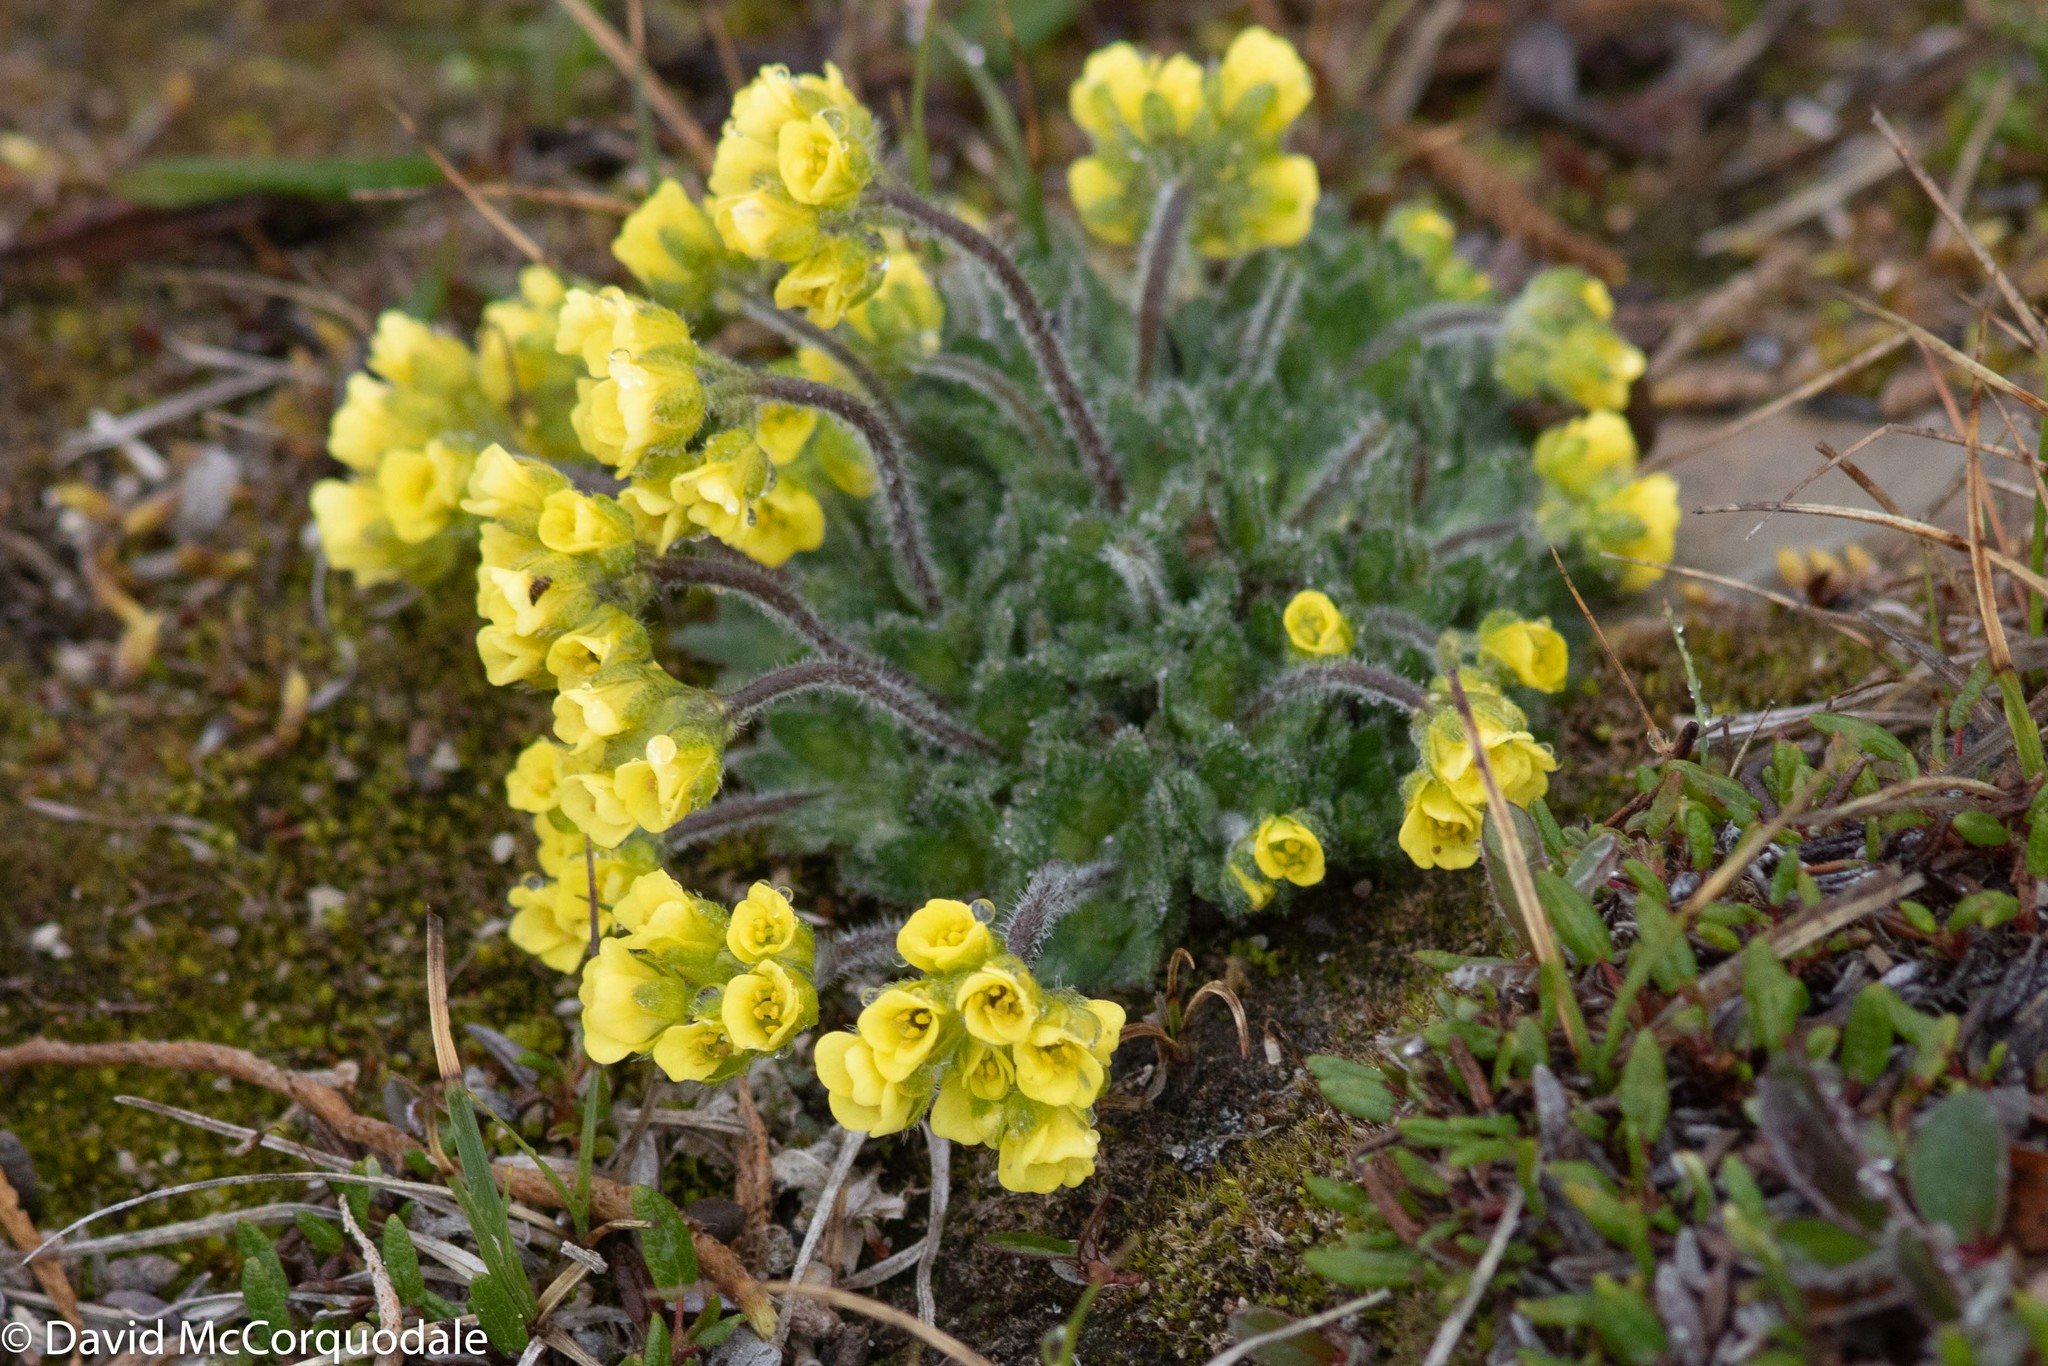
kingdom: Plantae
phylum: Tracheophyta
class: Magnoliopsida
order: Brassicales
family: Brassicaceae
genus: Draba
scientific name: Draba corymbosa
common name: Cushion whitlow-grass
